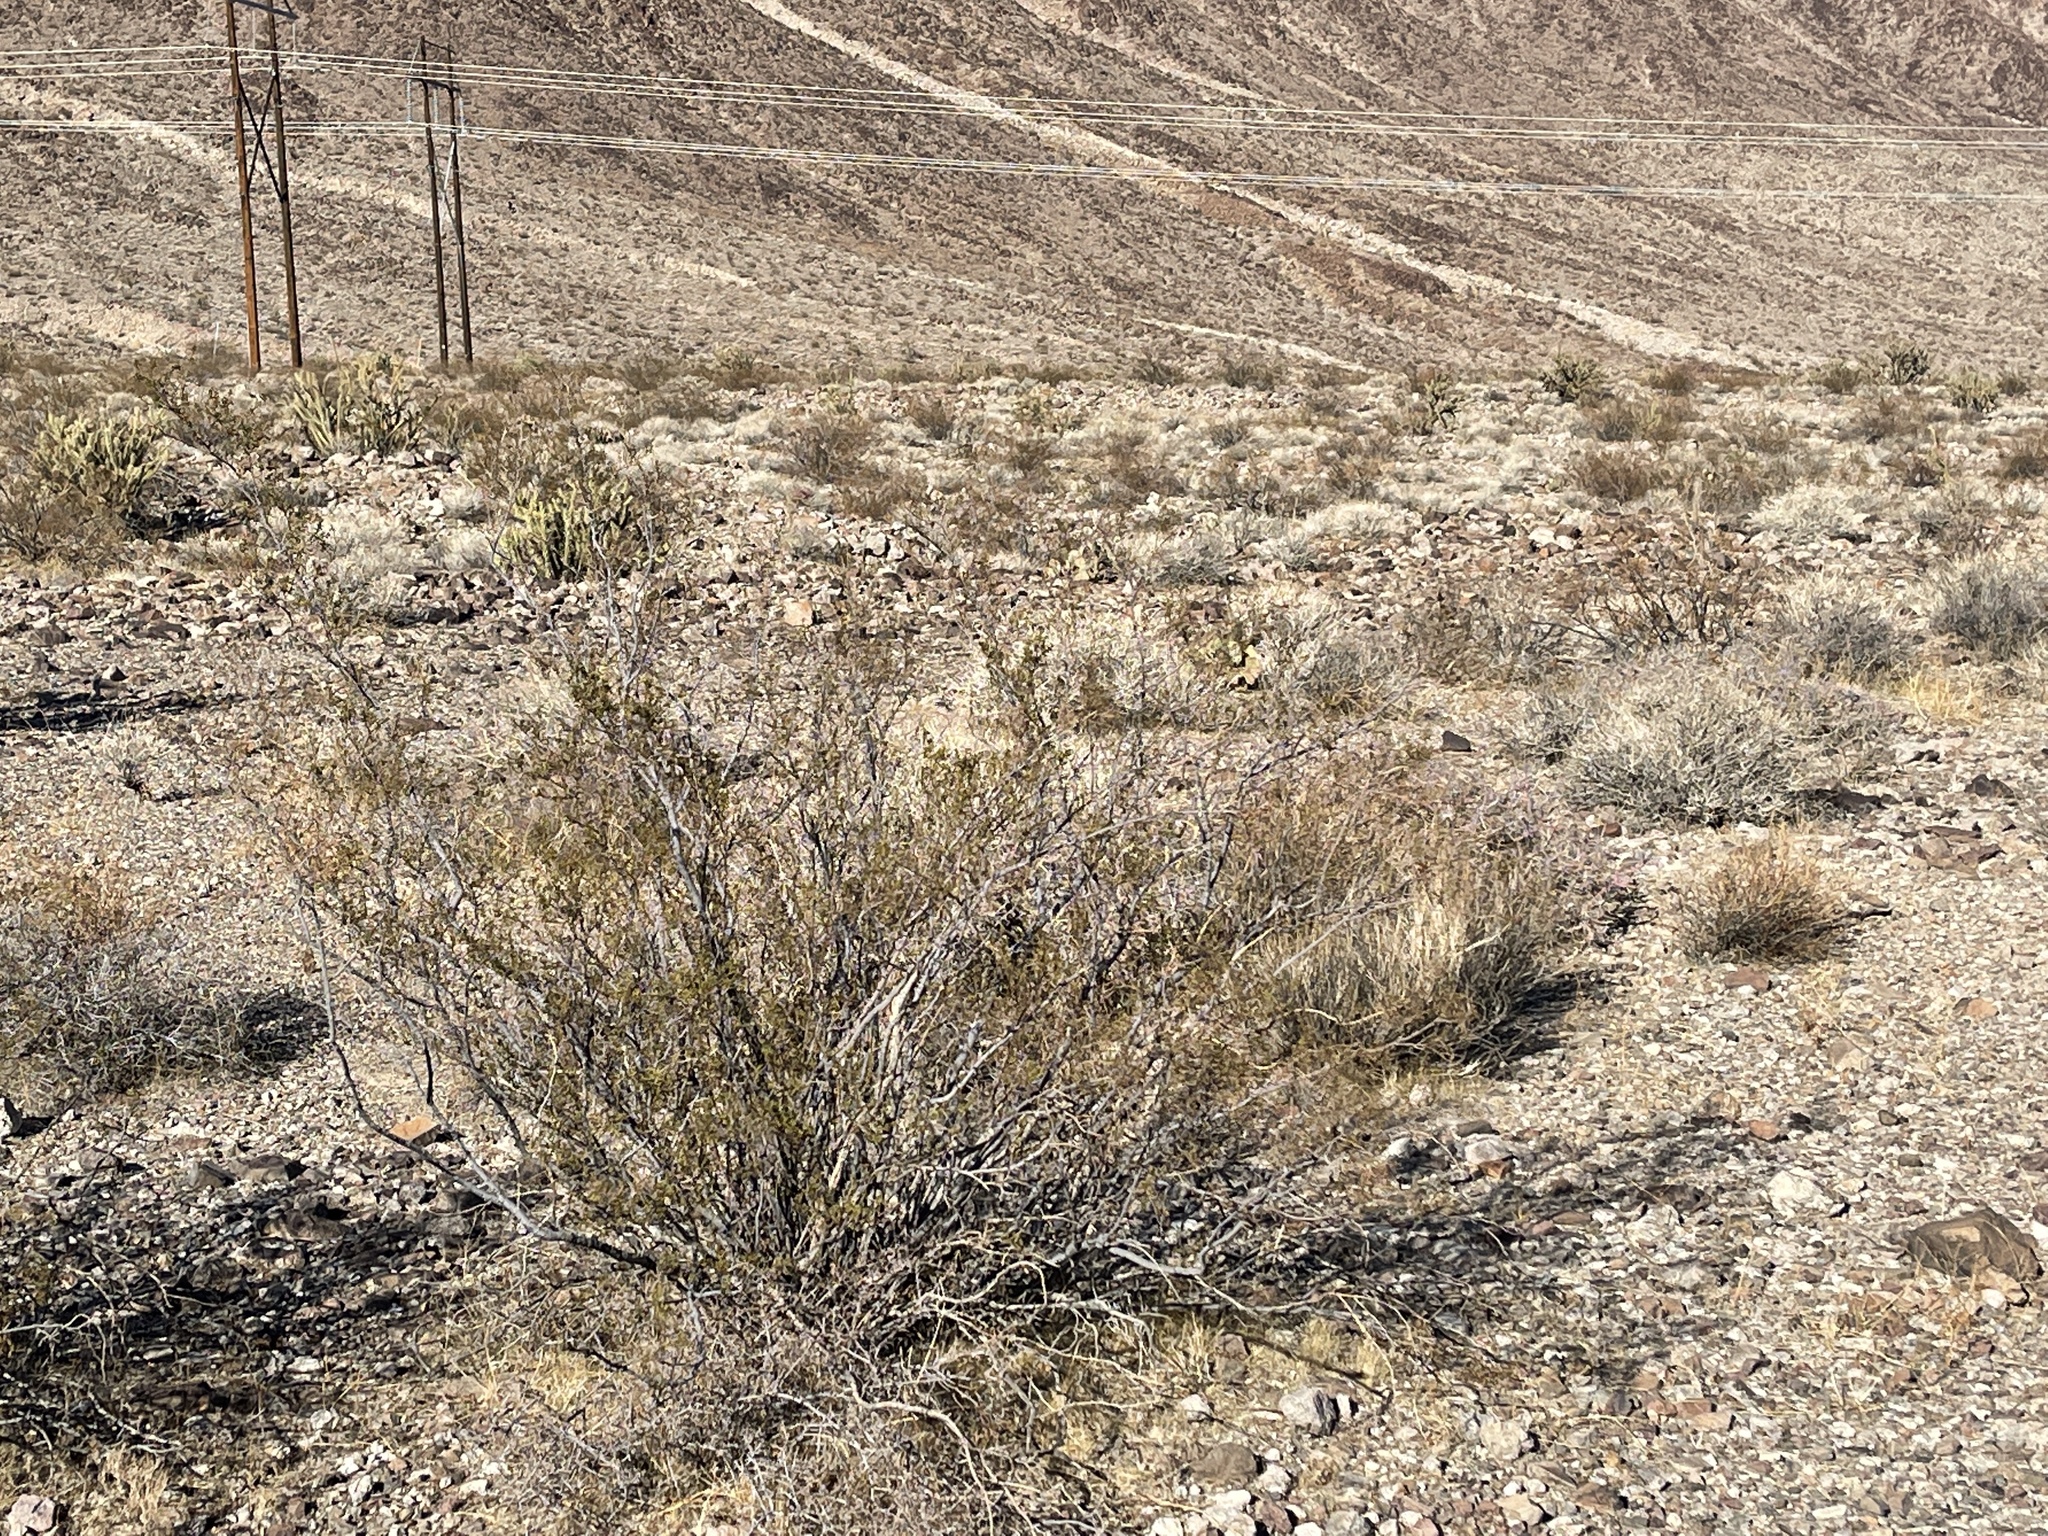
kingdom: Plantae
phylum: Tracheophyta
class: Magnoliopsida
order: Zygophyllales
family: Zygophyllaceae
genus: Larrea
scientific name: Larrea tridentata
